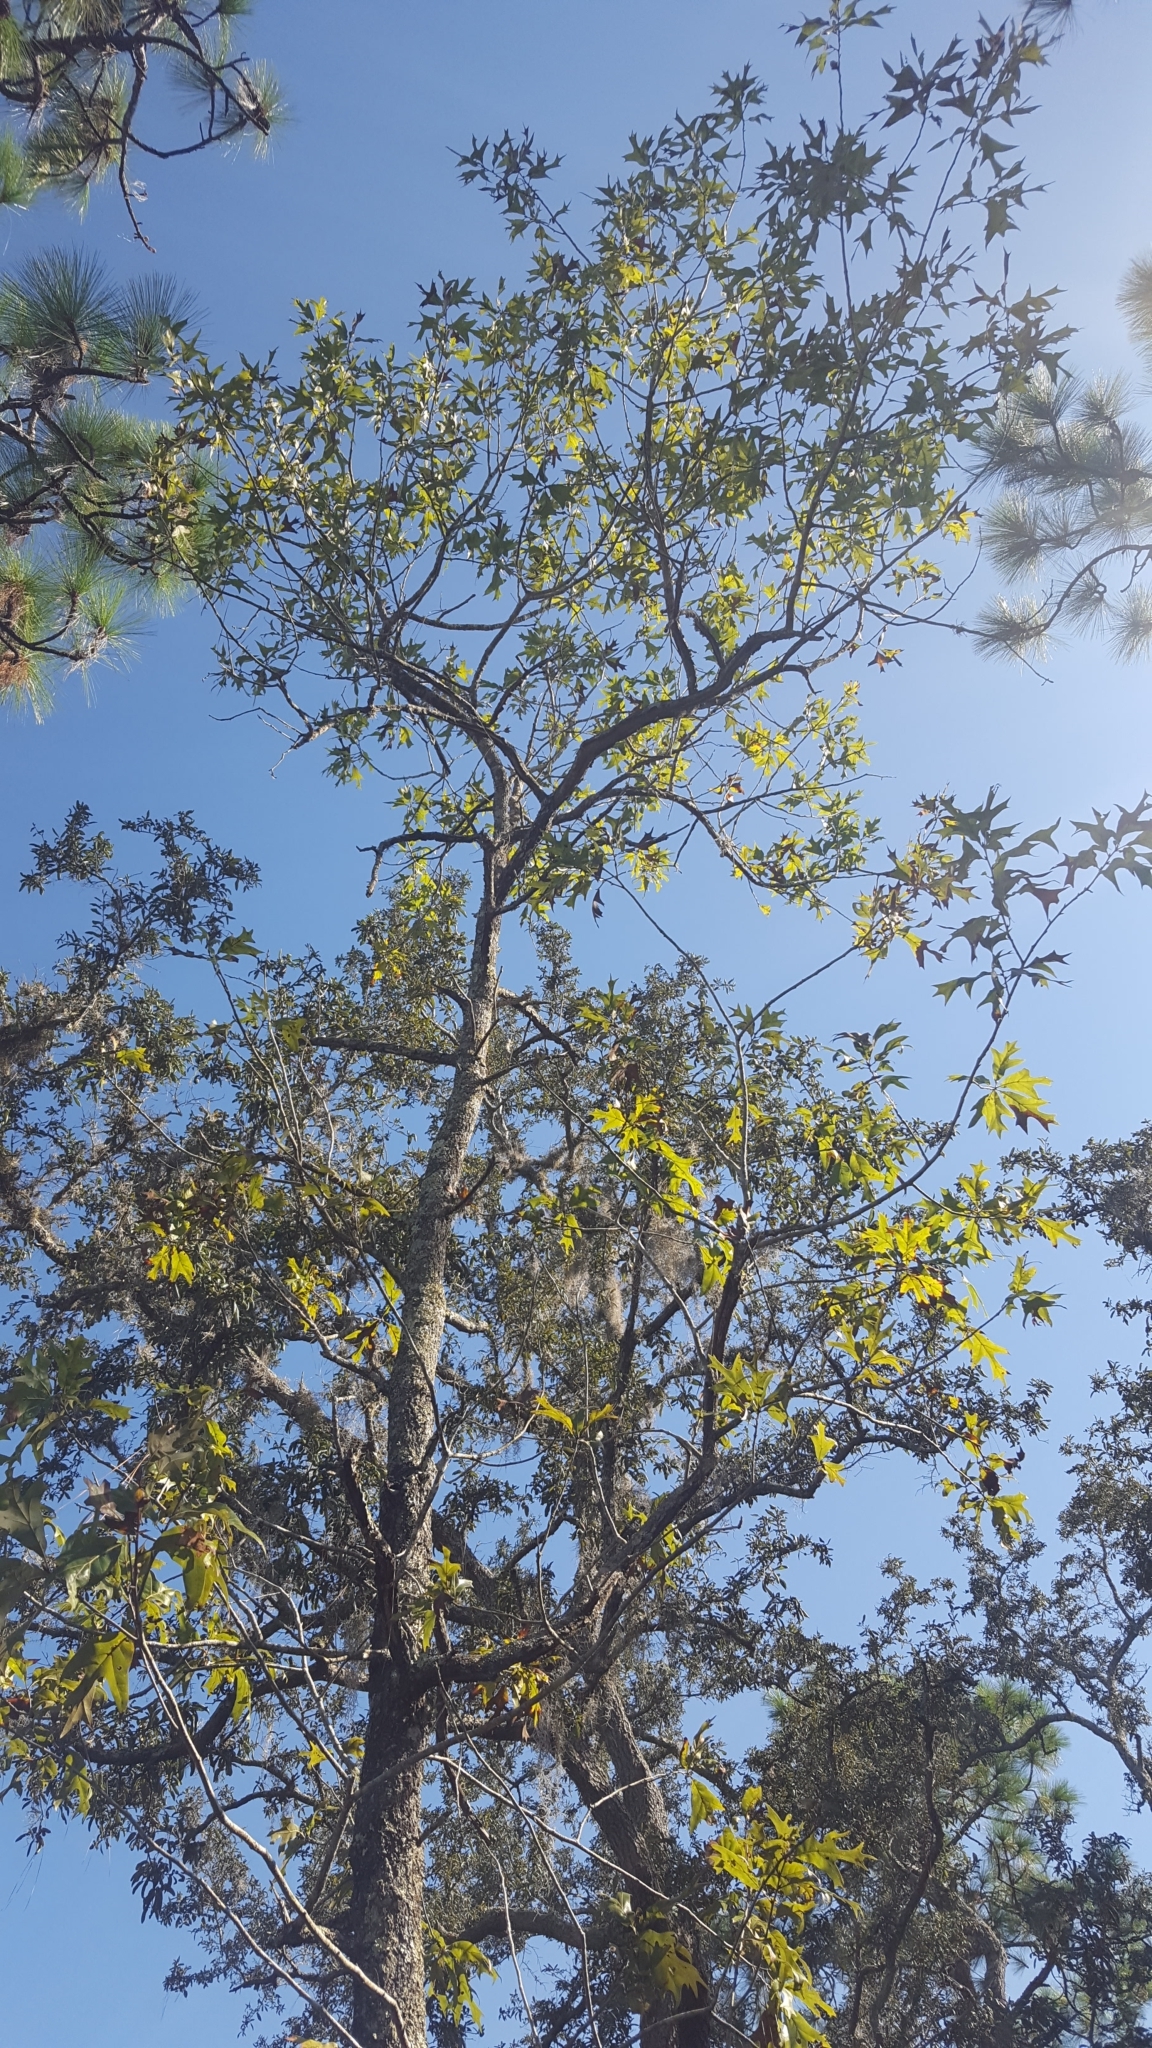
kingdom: Plantae
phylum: Tracheophyta
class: Magnoliopsida
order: Fagales
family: Fagaceae
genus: Quercus
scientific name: Quercus laevis
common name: Turkey oak
